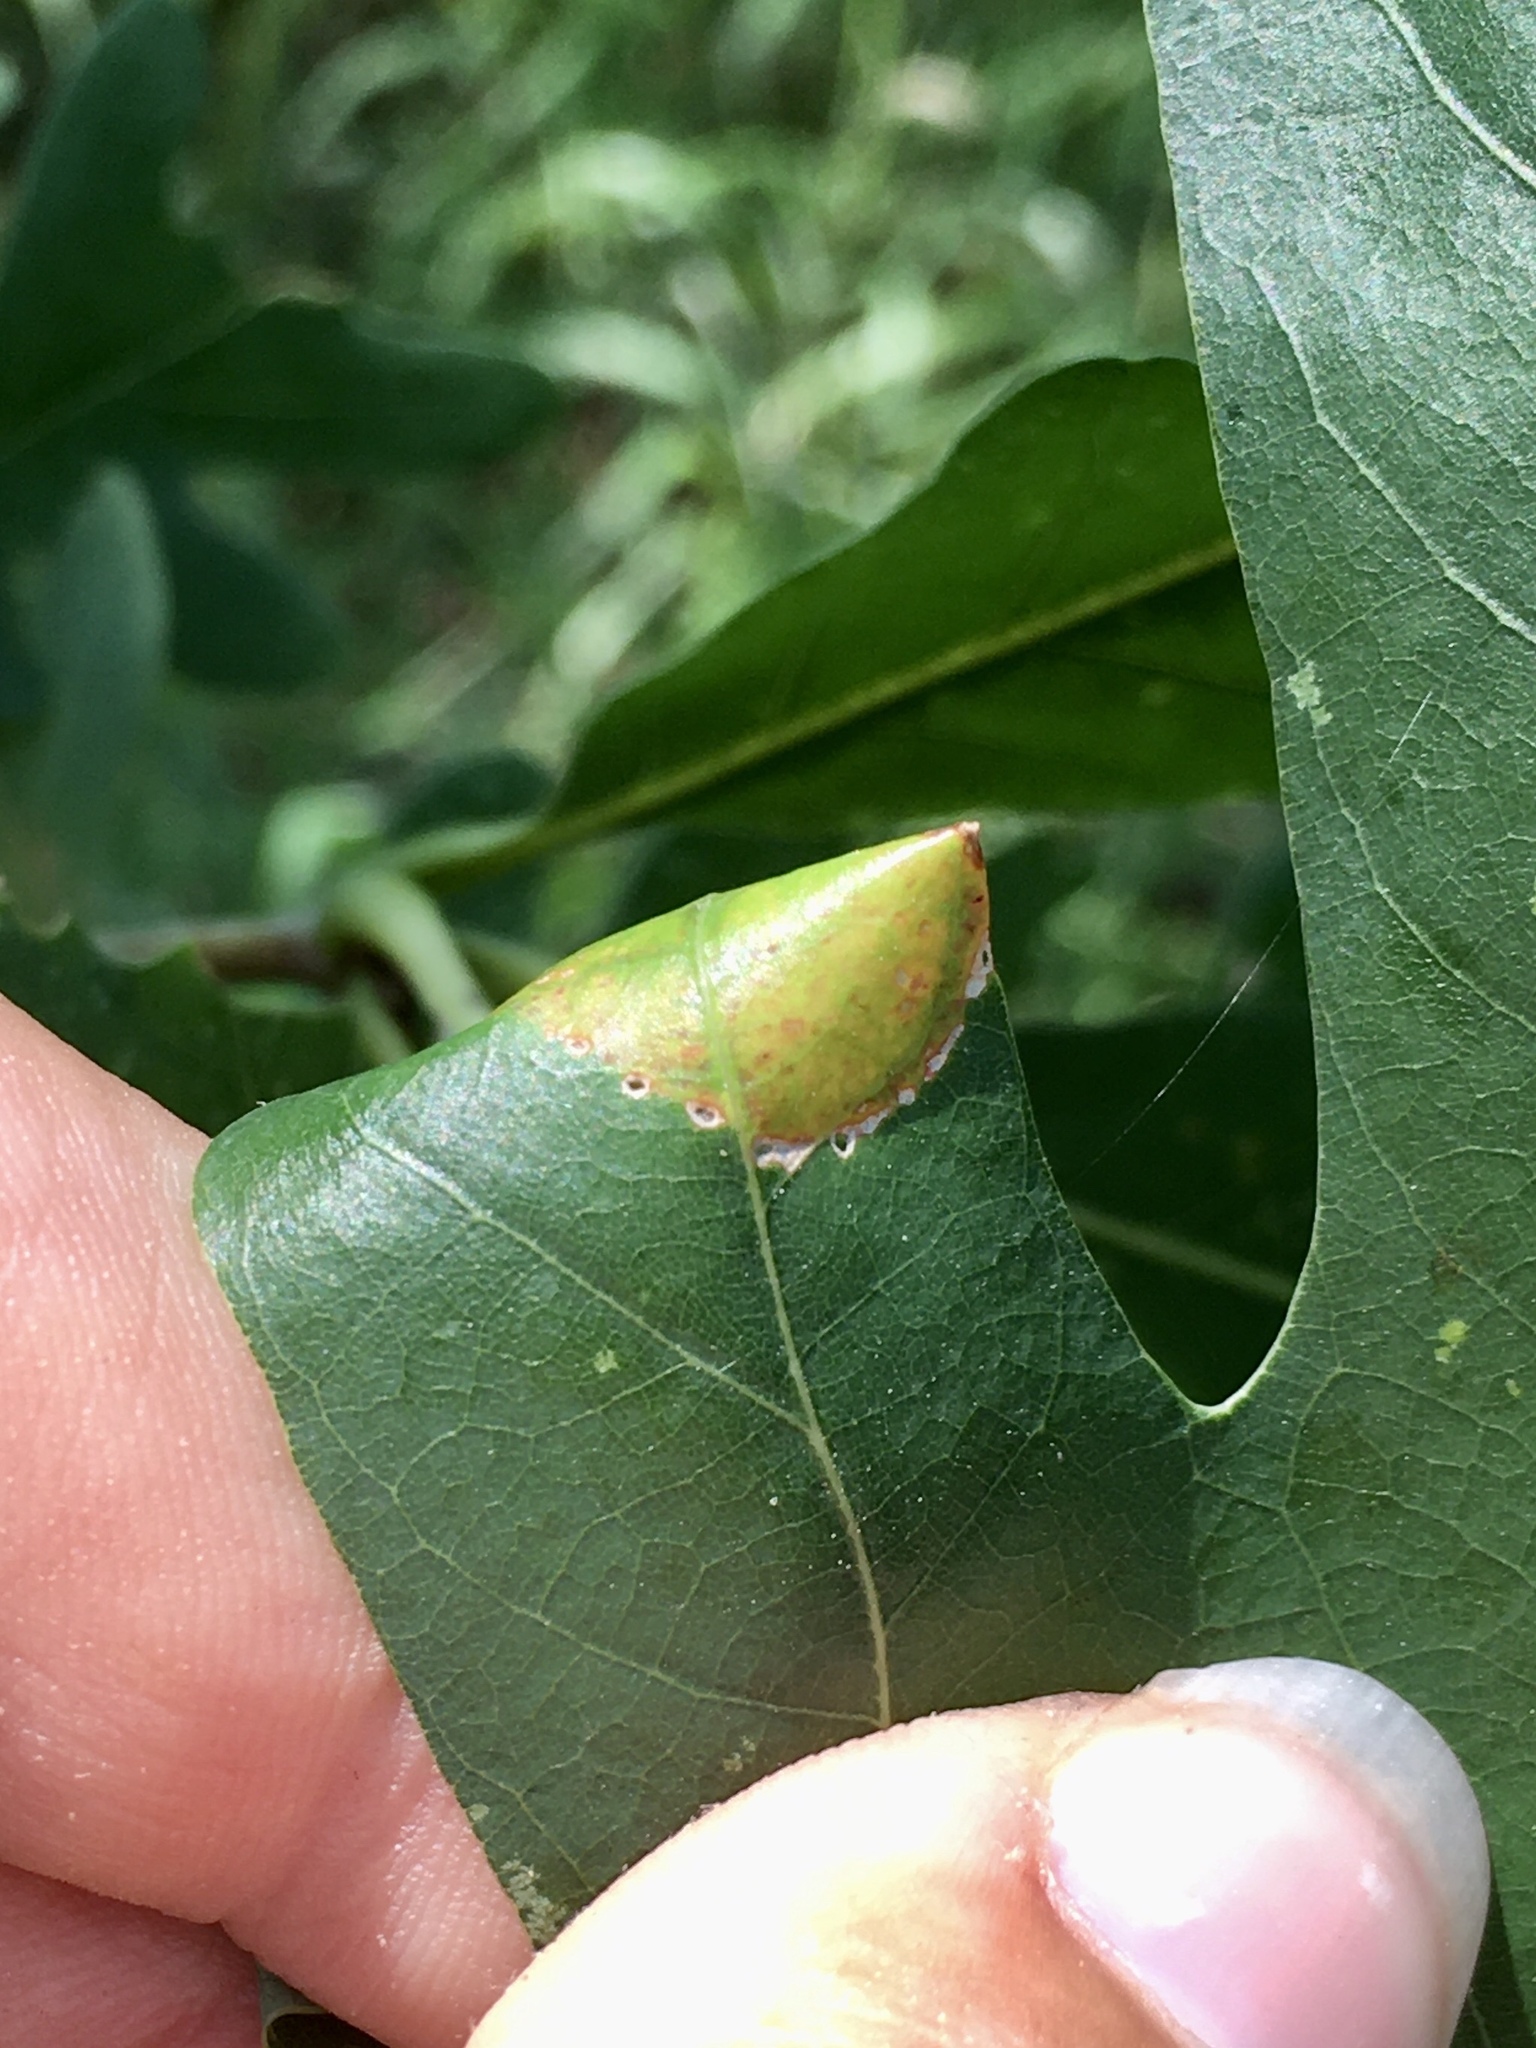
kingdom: Animalia
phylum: Arthropoda
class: Insecta
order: Lepidoptera
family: Gracillariidae
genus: Povolnya
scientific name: Povolnya quercinigrella
